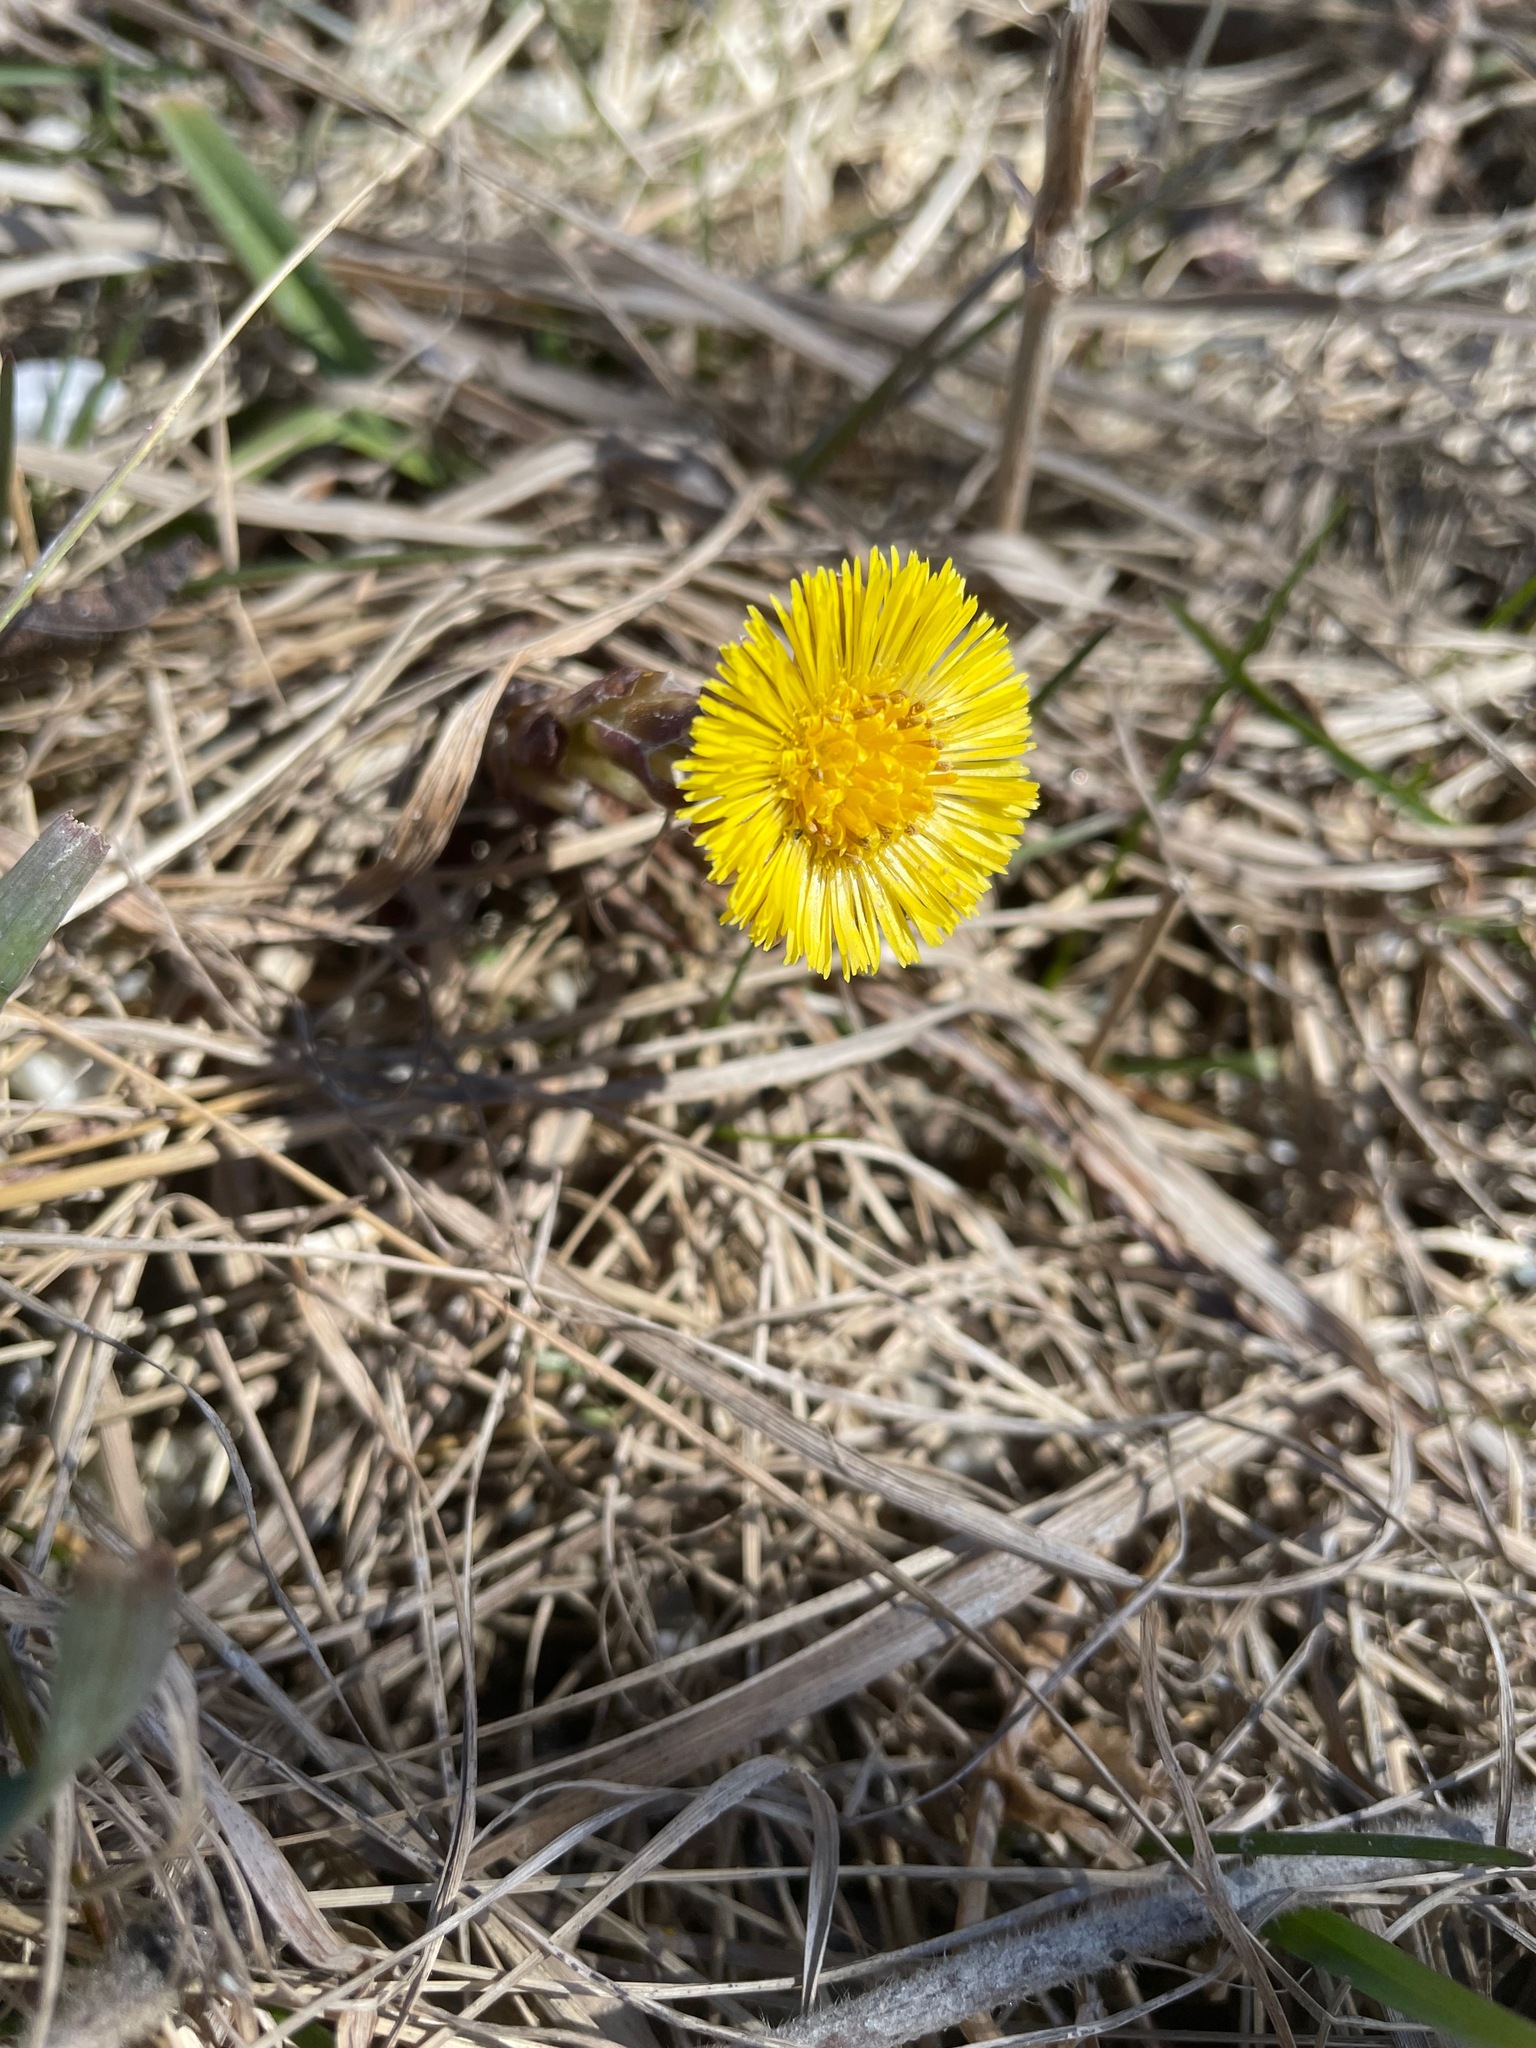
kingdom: Plantae
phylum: Tracheophyta
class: Magnoliopsida
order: Asterales
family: Asteraceae
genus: Tussilago
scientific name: Tussilago farfara
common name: Coltsfoot
